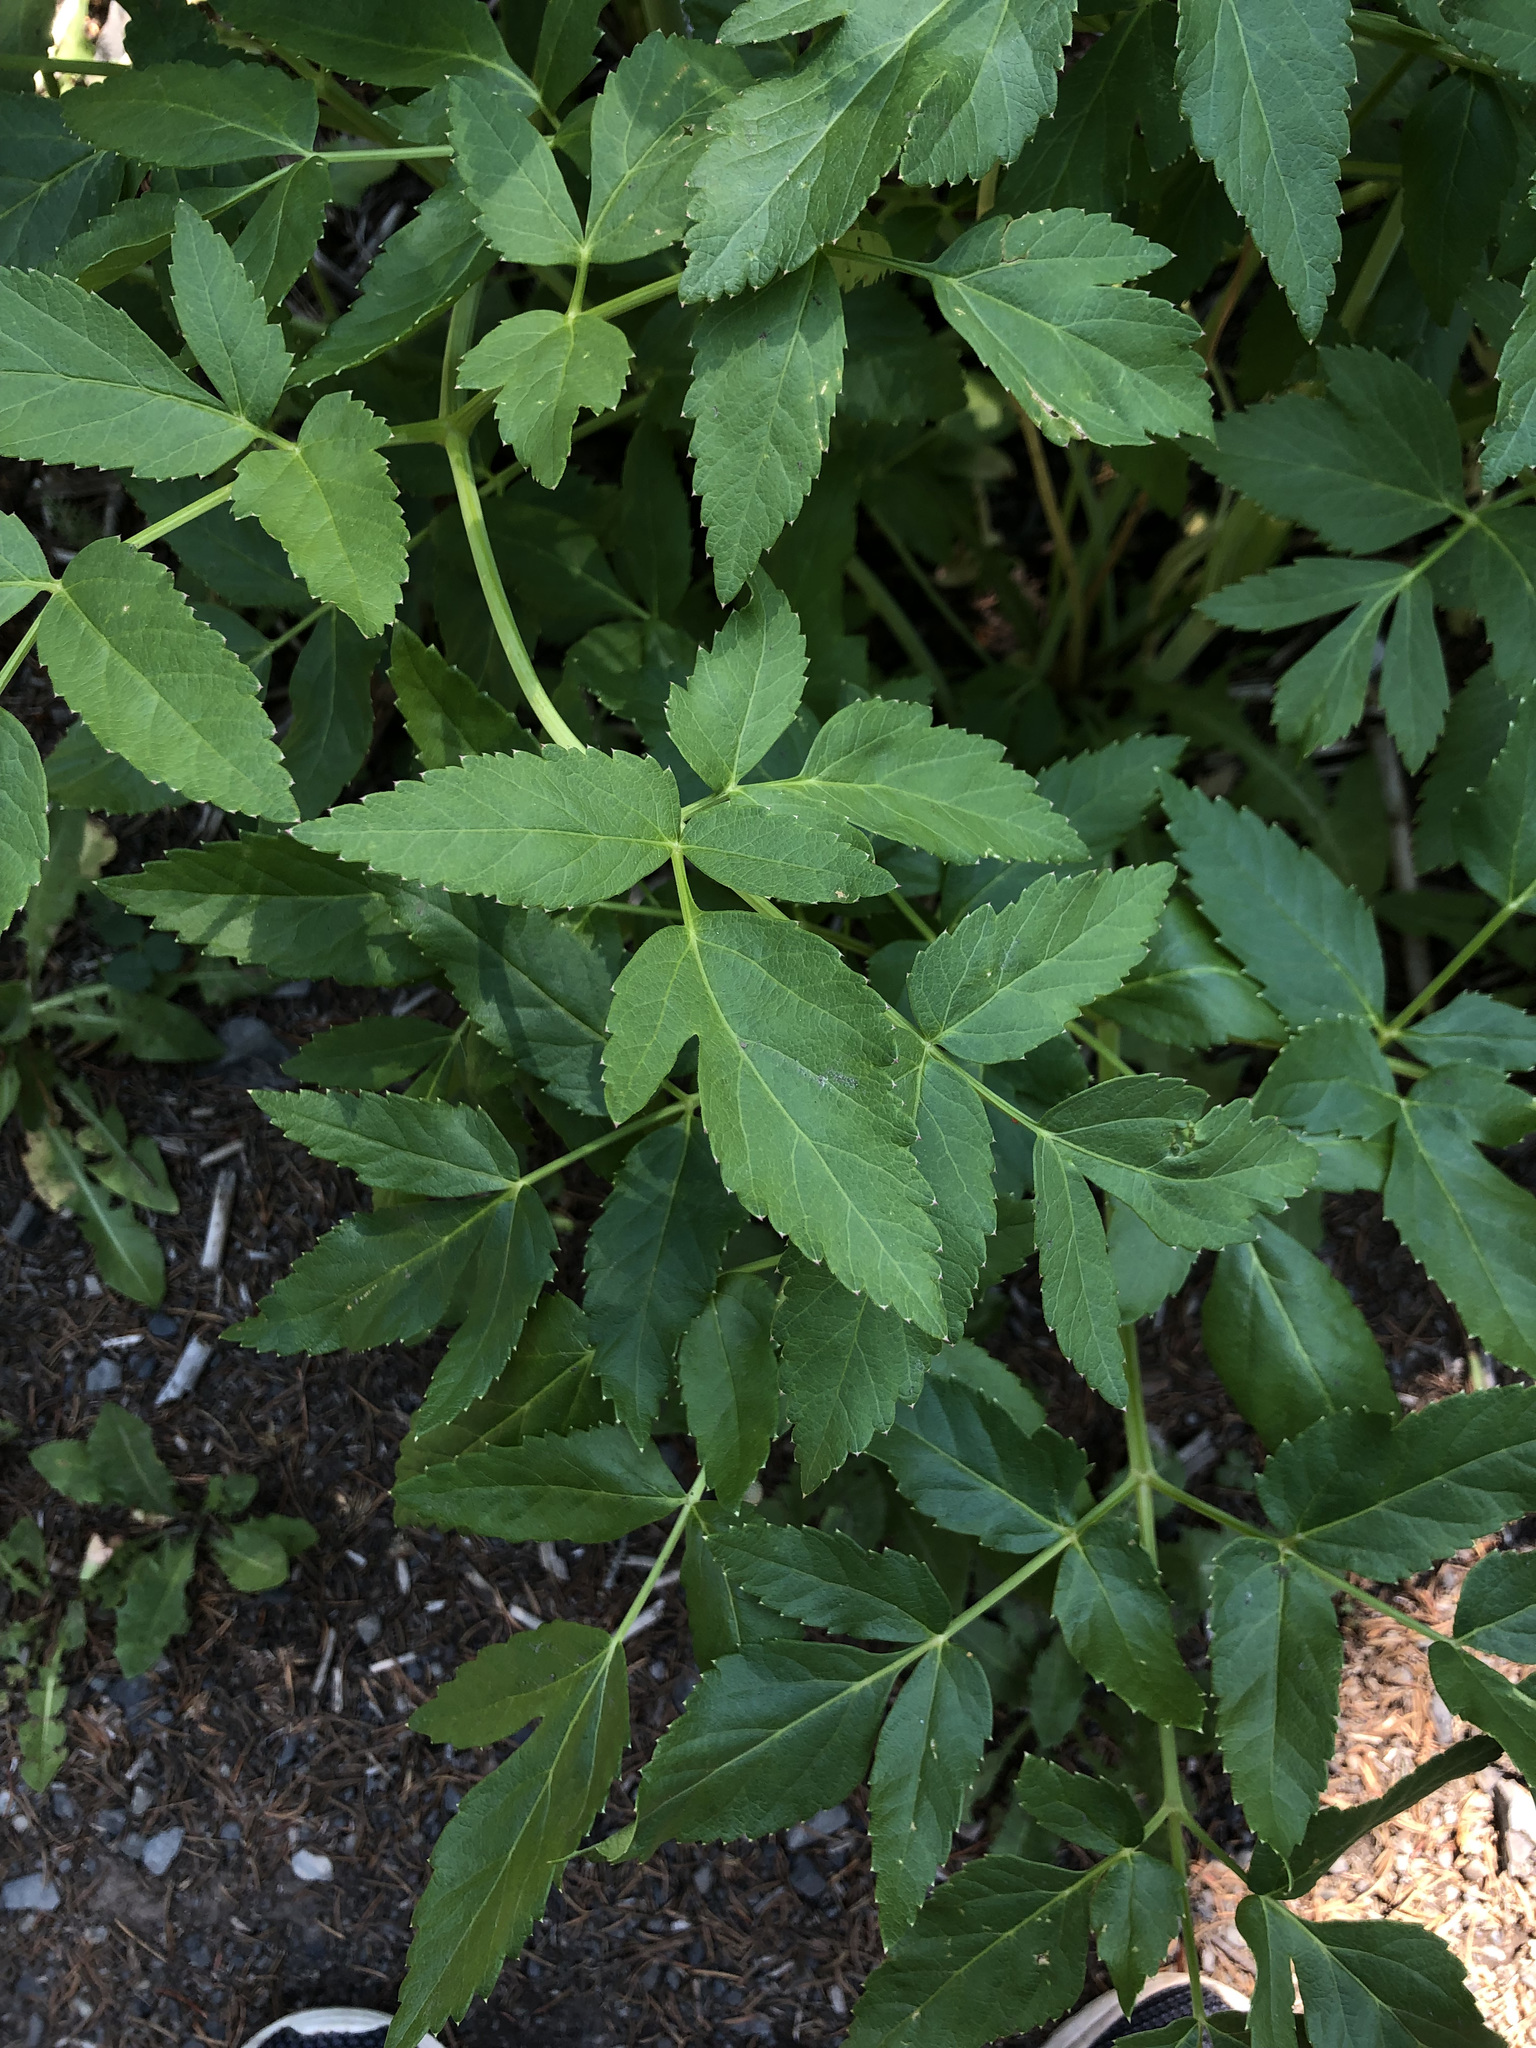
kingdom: Plantae
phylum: Tracheophyta
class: Magnoliopsida
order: Apiales
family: Apiaceae
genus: Angelica
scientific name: Angelica arguta
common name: Lyall's angelica
